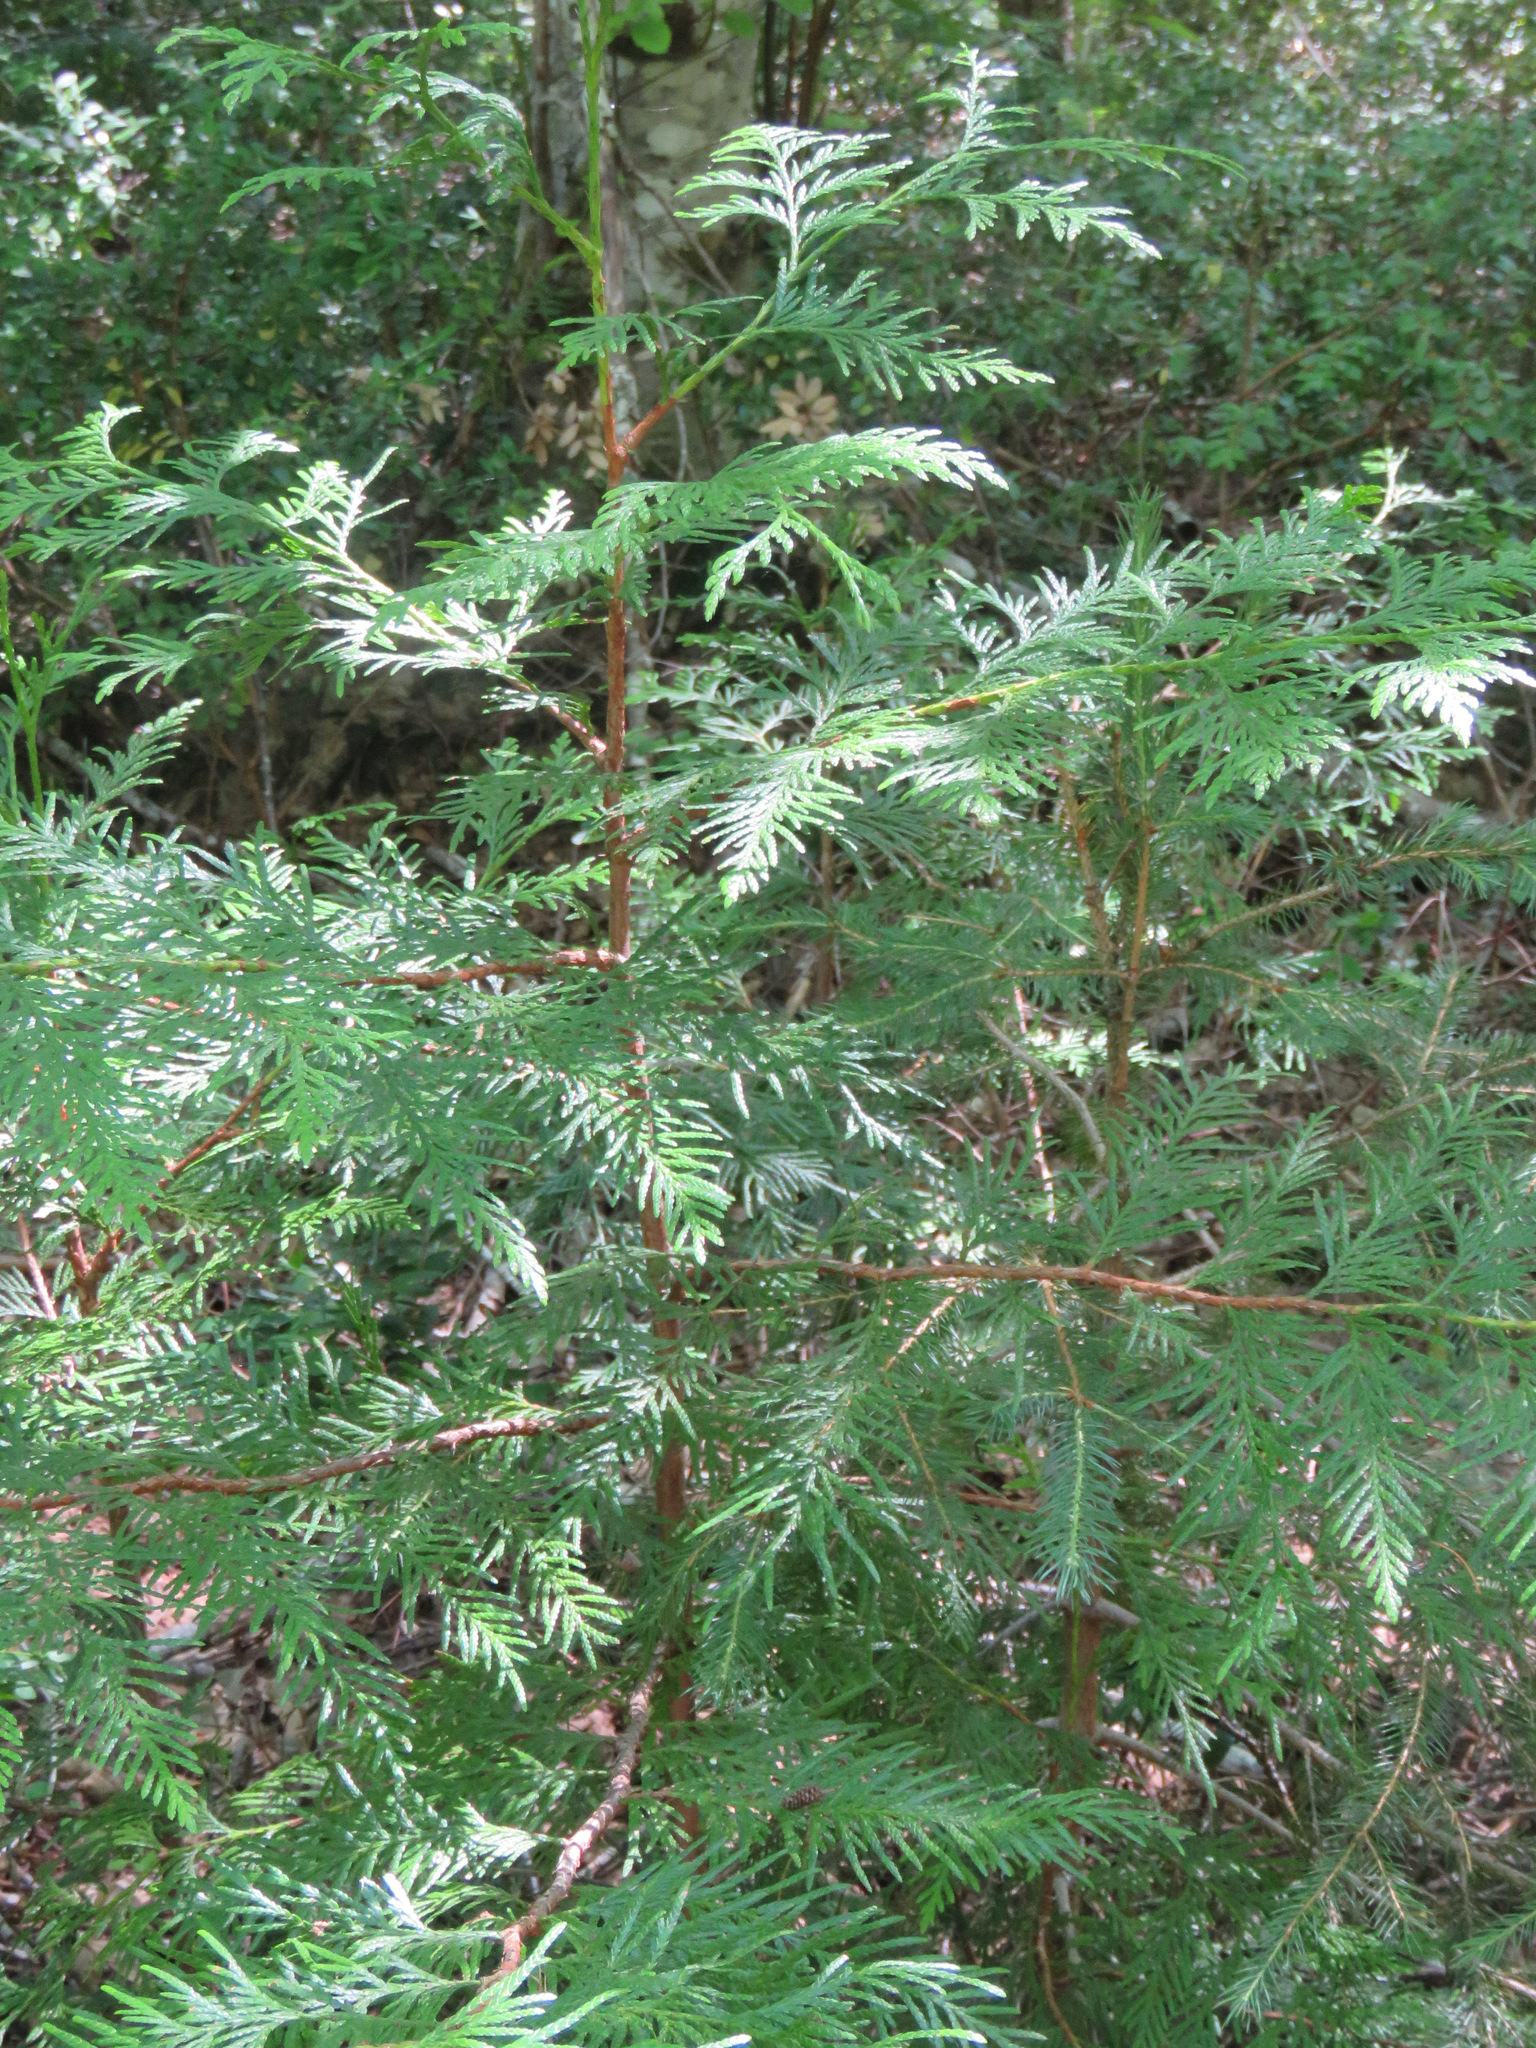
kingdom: Plantae
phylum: Tracheophyta
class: Pinopsida
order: Pinales
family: Cupressaceae
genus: Thuja
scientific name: Thuja plicata
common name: Western red-cedar
